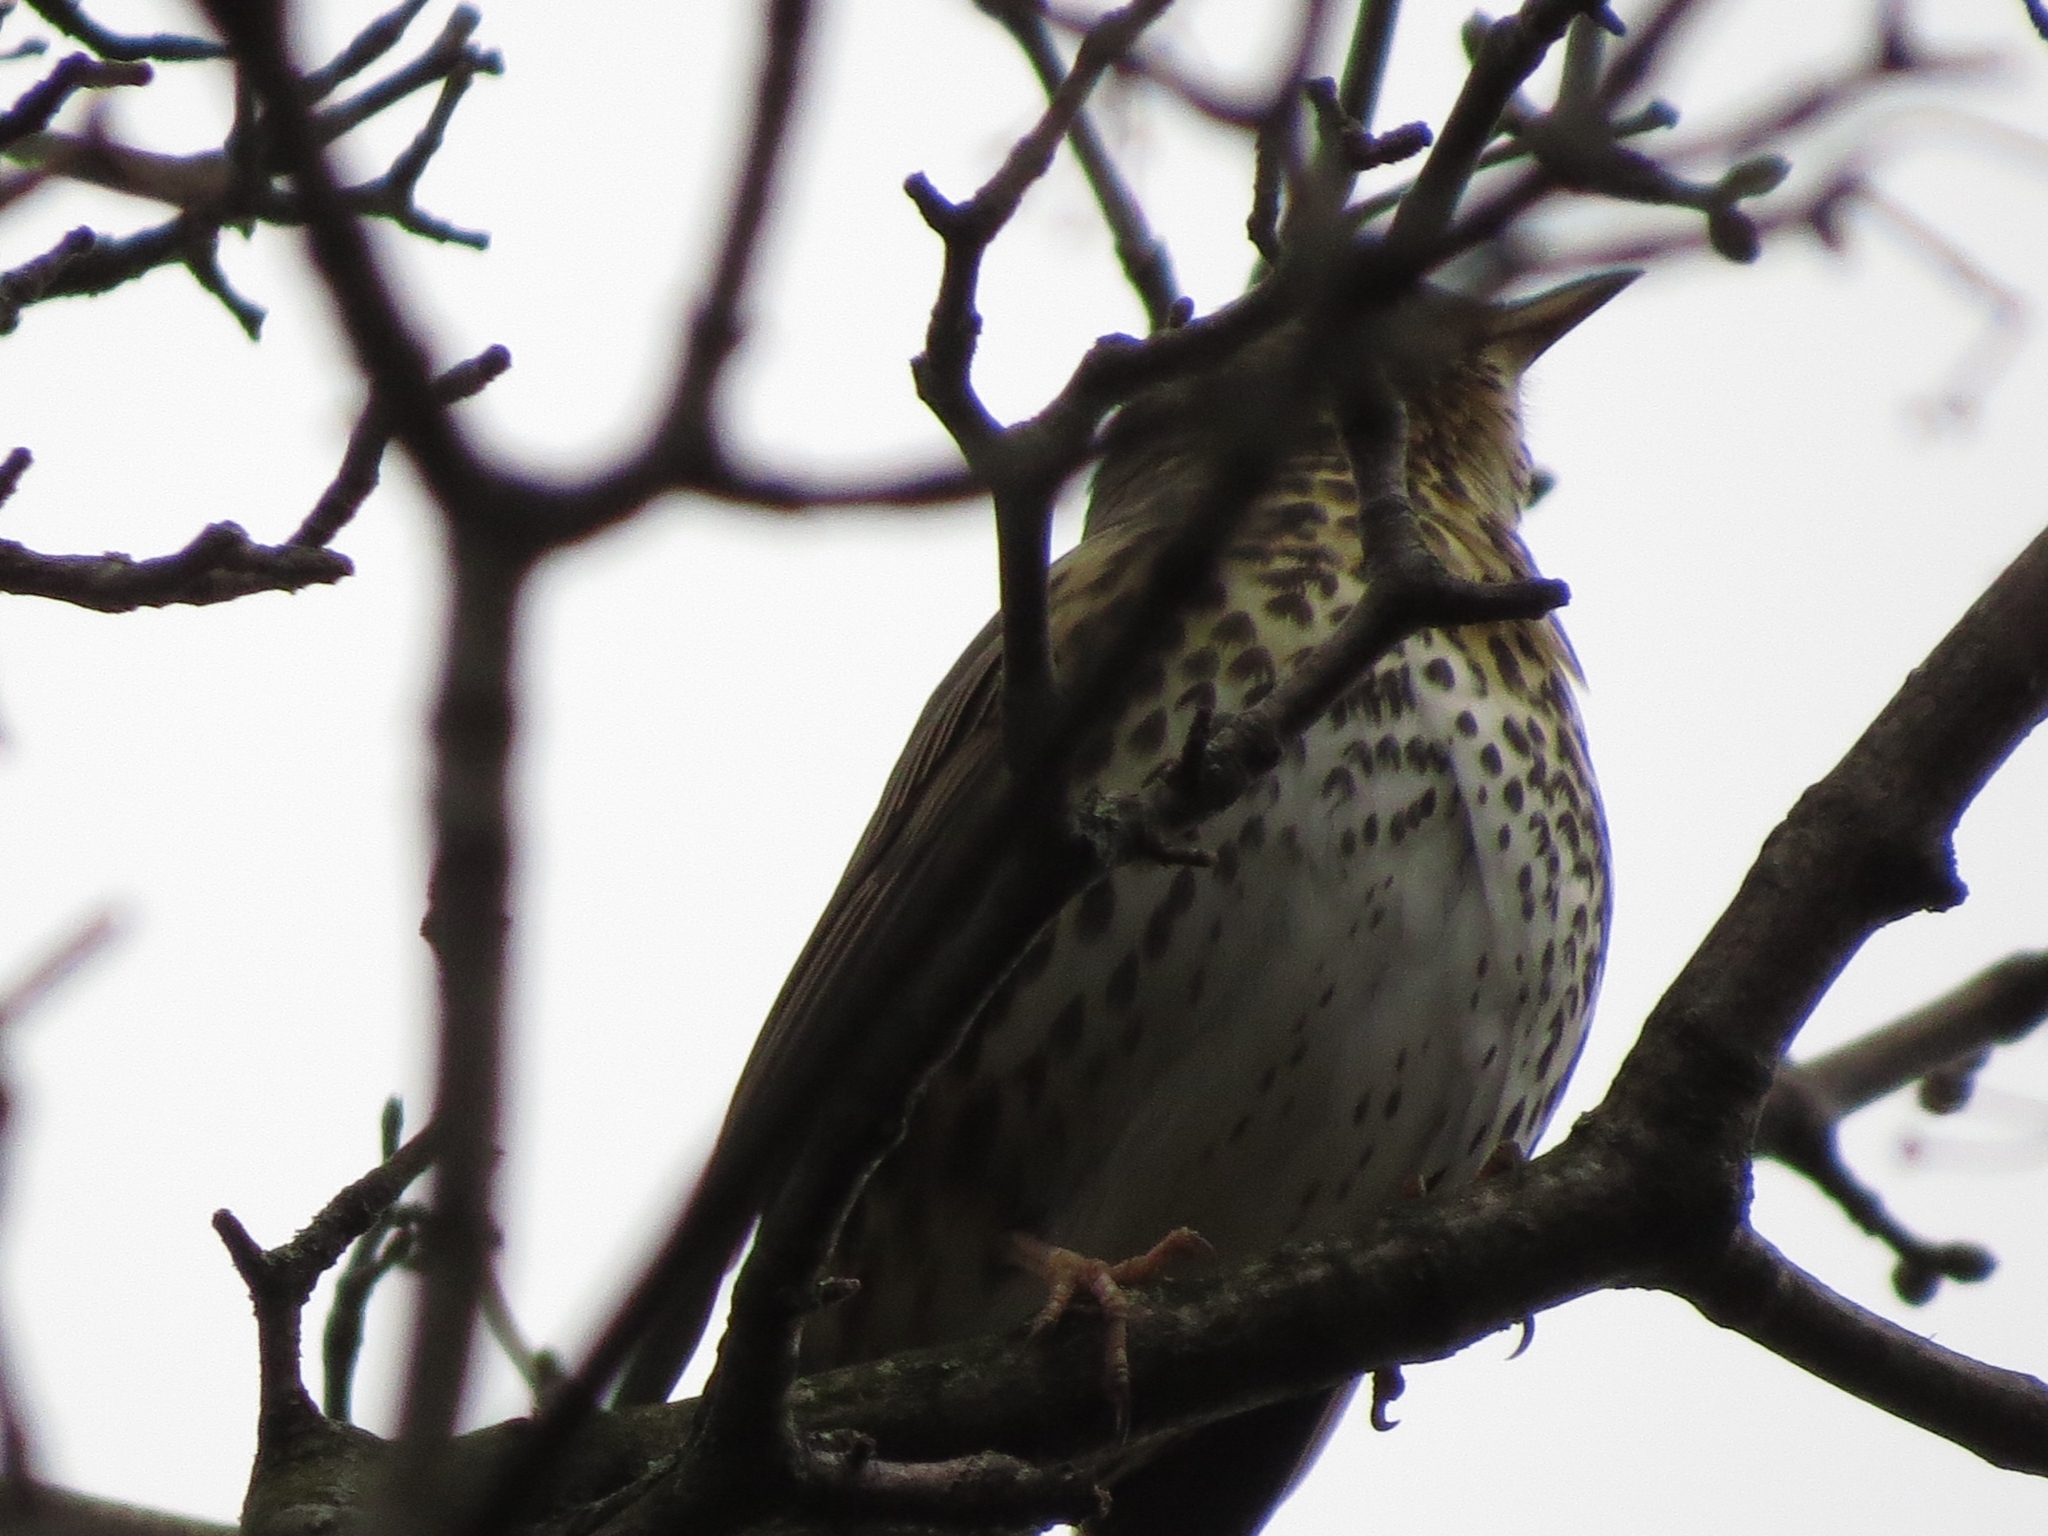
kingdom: Animalia
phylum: Chordata
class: Aves
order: Passeriformes
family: Turdidae
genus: Turdus
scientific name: Turdus philomelos
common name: Song thrush
